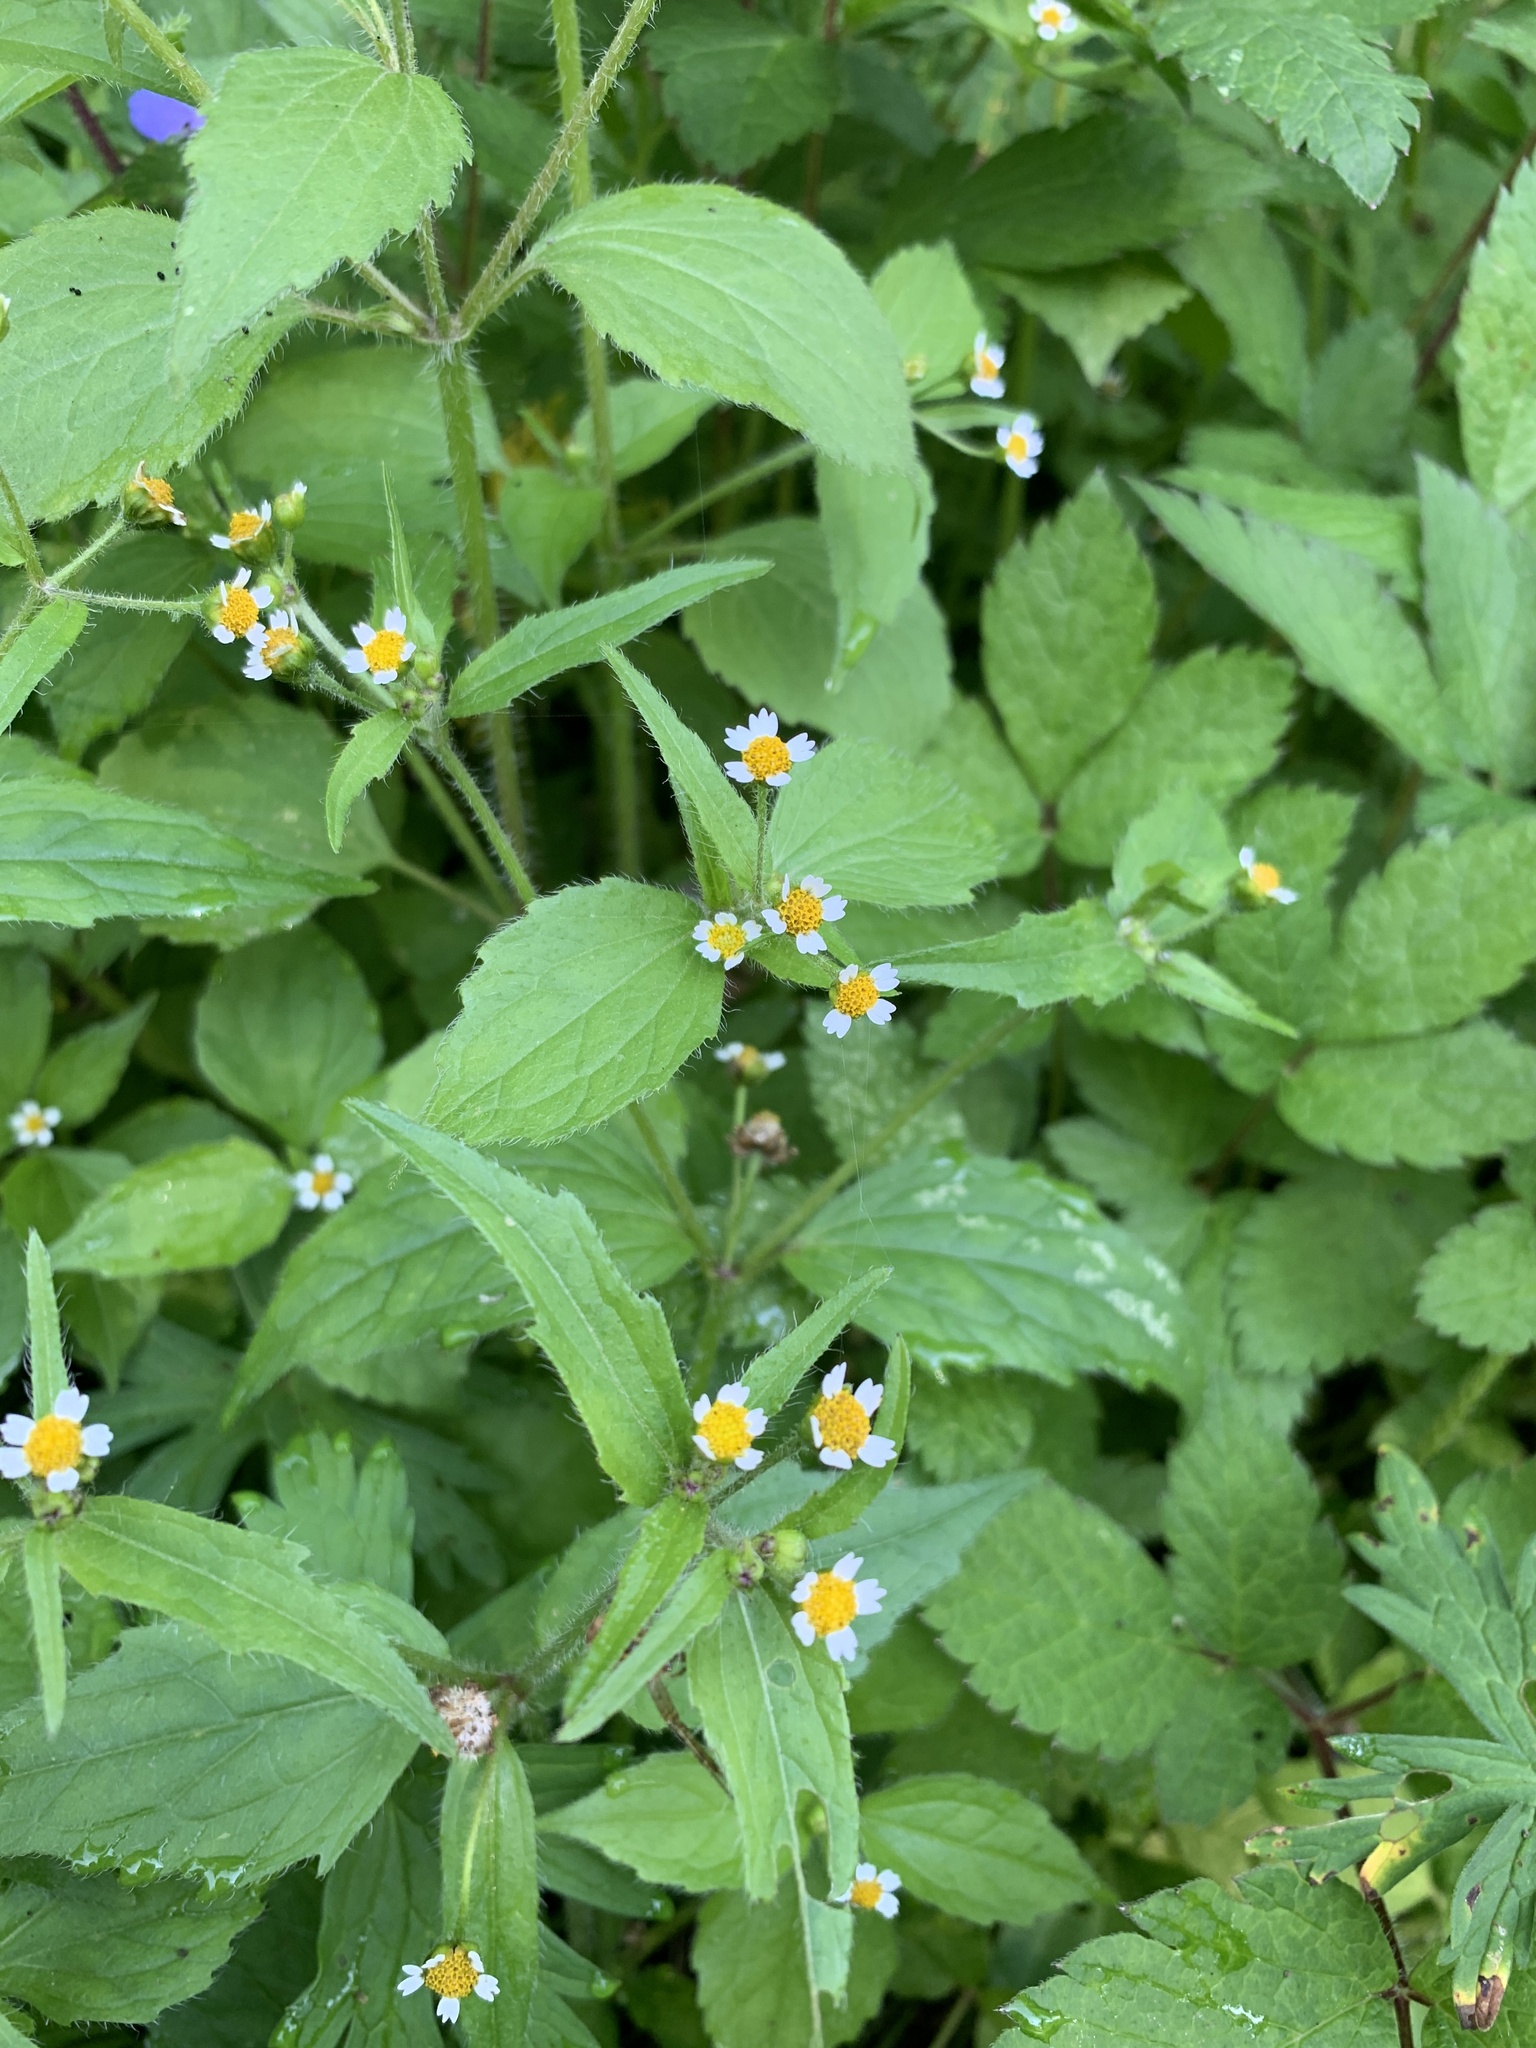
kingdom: Plantae
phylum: Tracheophyta
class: Magnoliopsida
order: Asterales
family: Asteraceae
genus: Galinsoga
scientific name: Galinsoga quadriradiata
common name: Shaggy soldier
